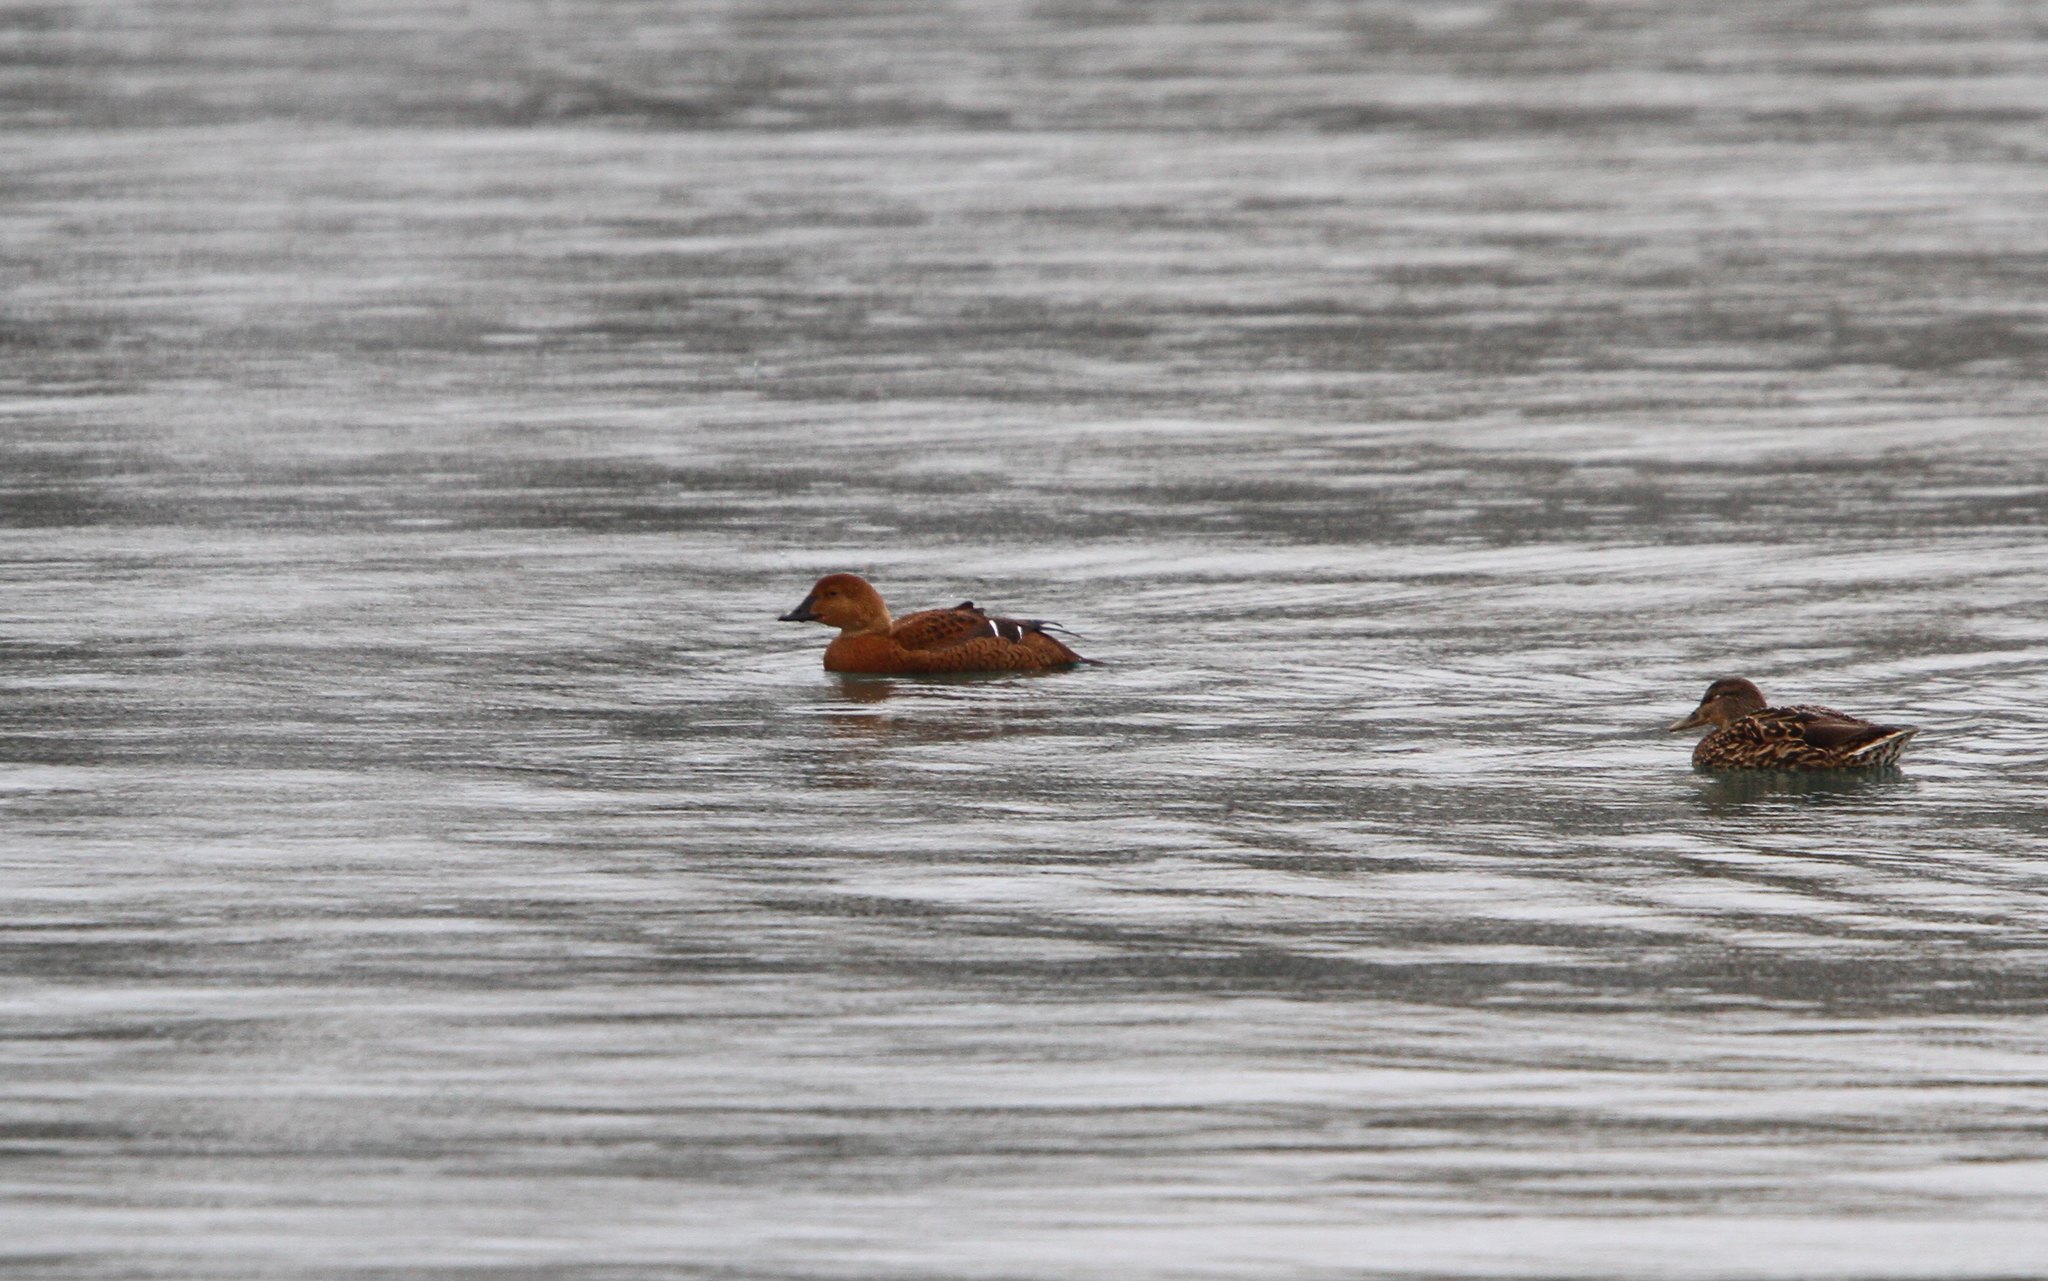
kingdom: Animalia
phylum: Chordata
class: Aves
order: Anseriformes
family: Anatidae
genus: Somateria
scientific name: Somateria spectabilis
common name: King eider
